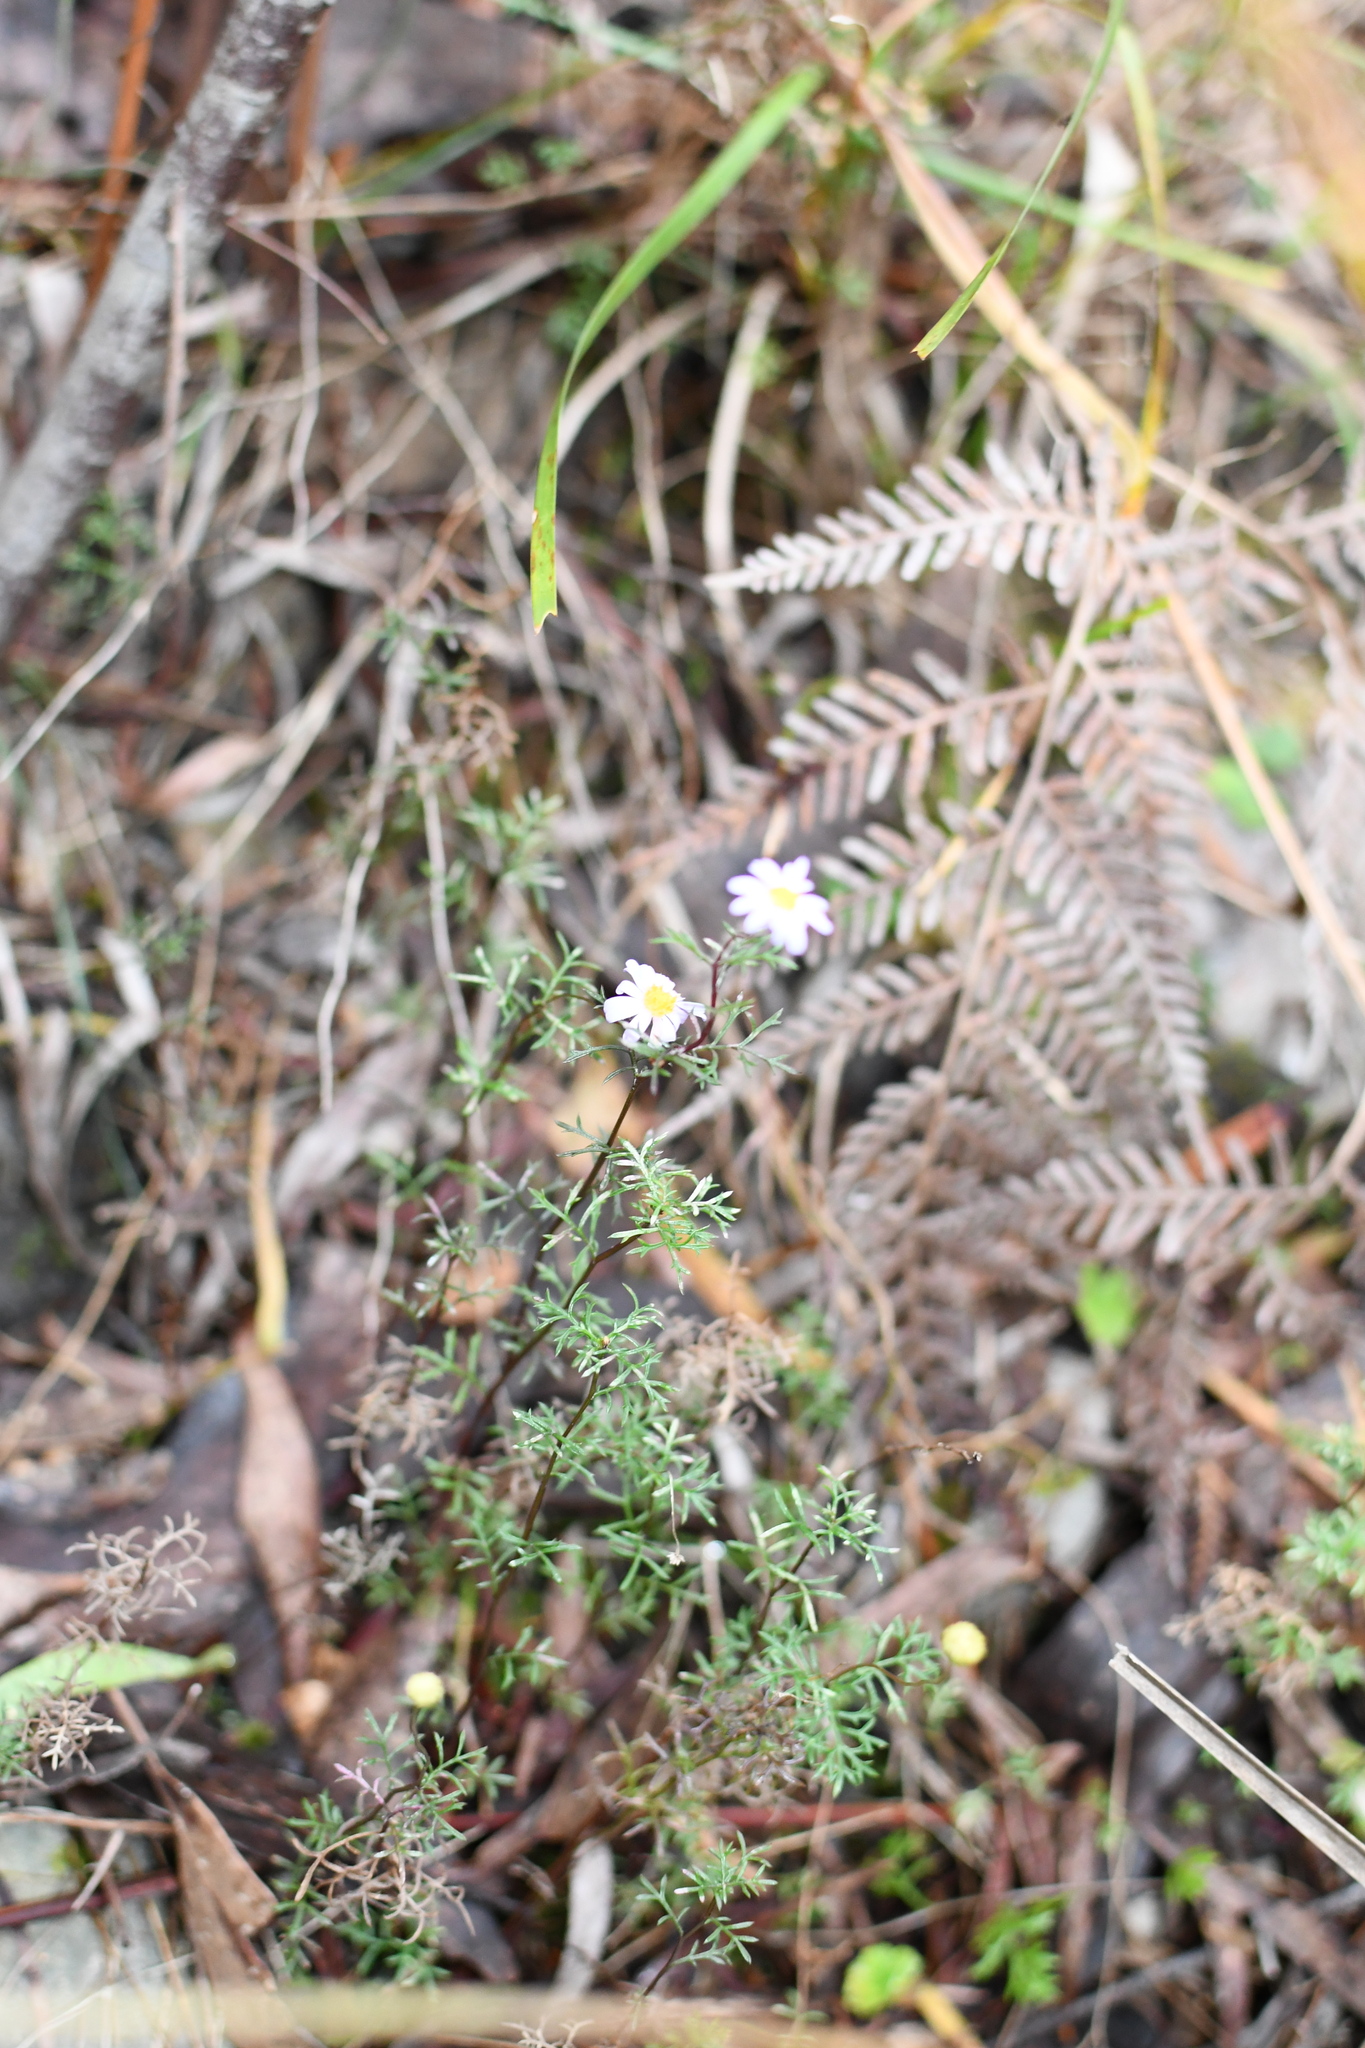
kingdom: Plantae
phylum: Tracheophyta
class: Magnoliopsida
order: Asterales
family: Asteraceae
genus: Brachyscome
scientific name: Brachyscome multifida
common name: Cut-leaf daisy
